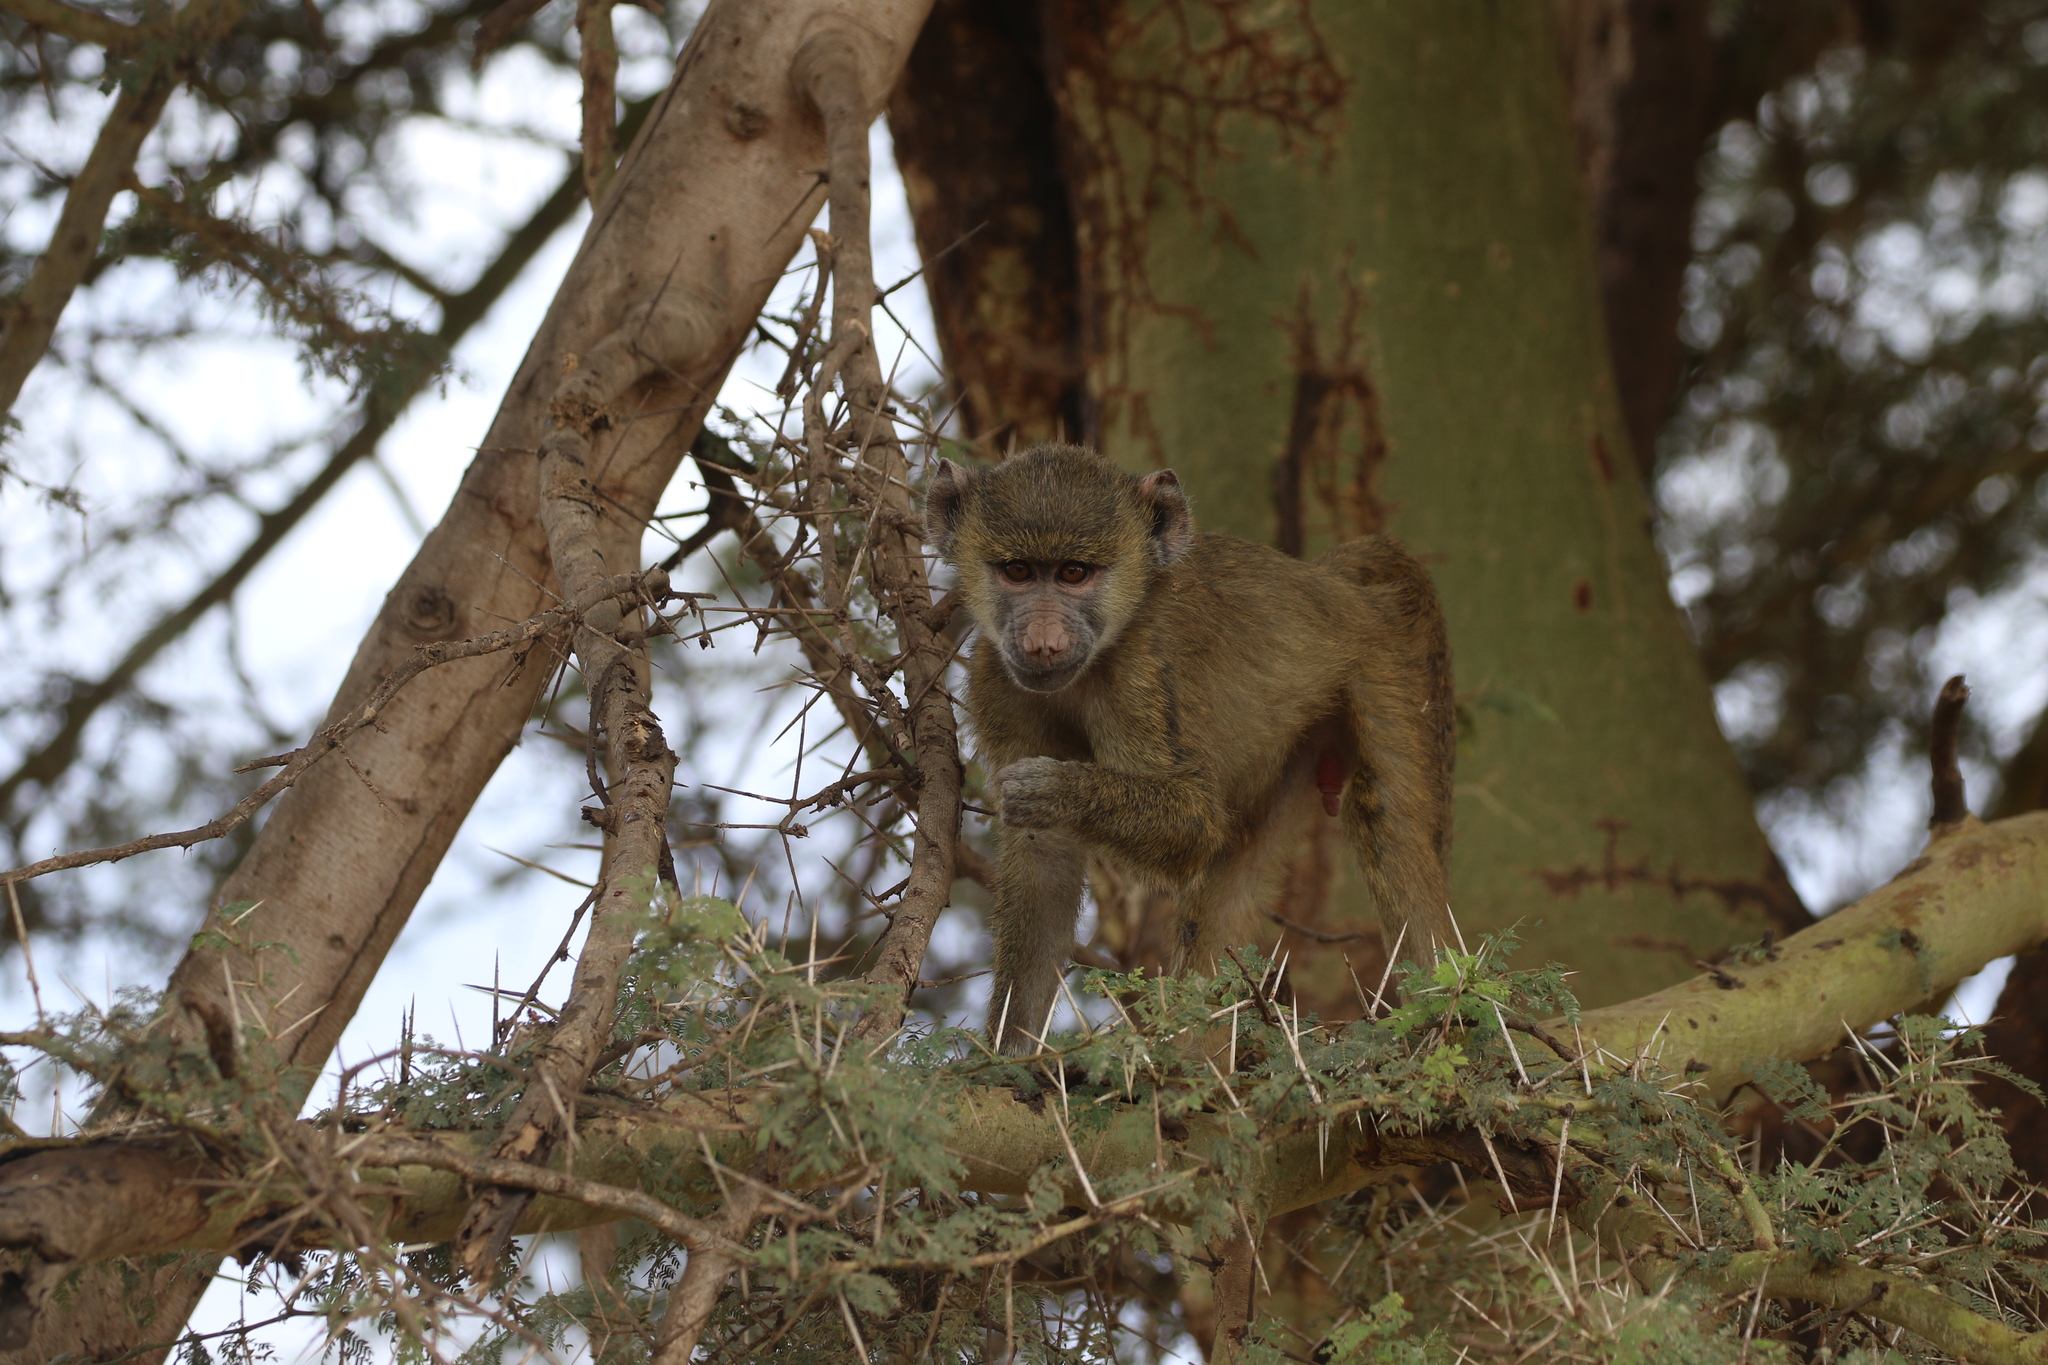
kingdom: Animalia
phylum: Chordata
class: Mammalia
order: Primates
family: Cercopithecidae
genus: Papio
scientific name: Papio cynocephalus
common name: Yellow baboon
